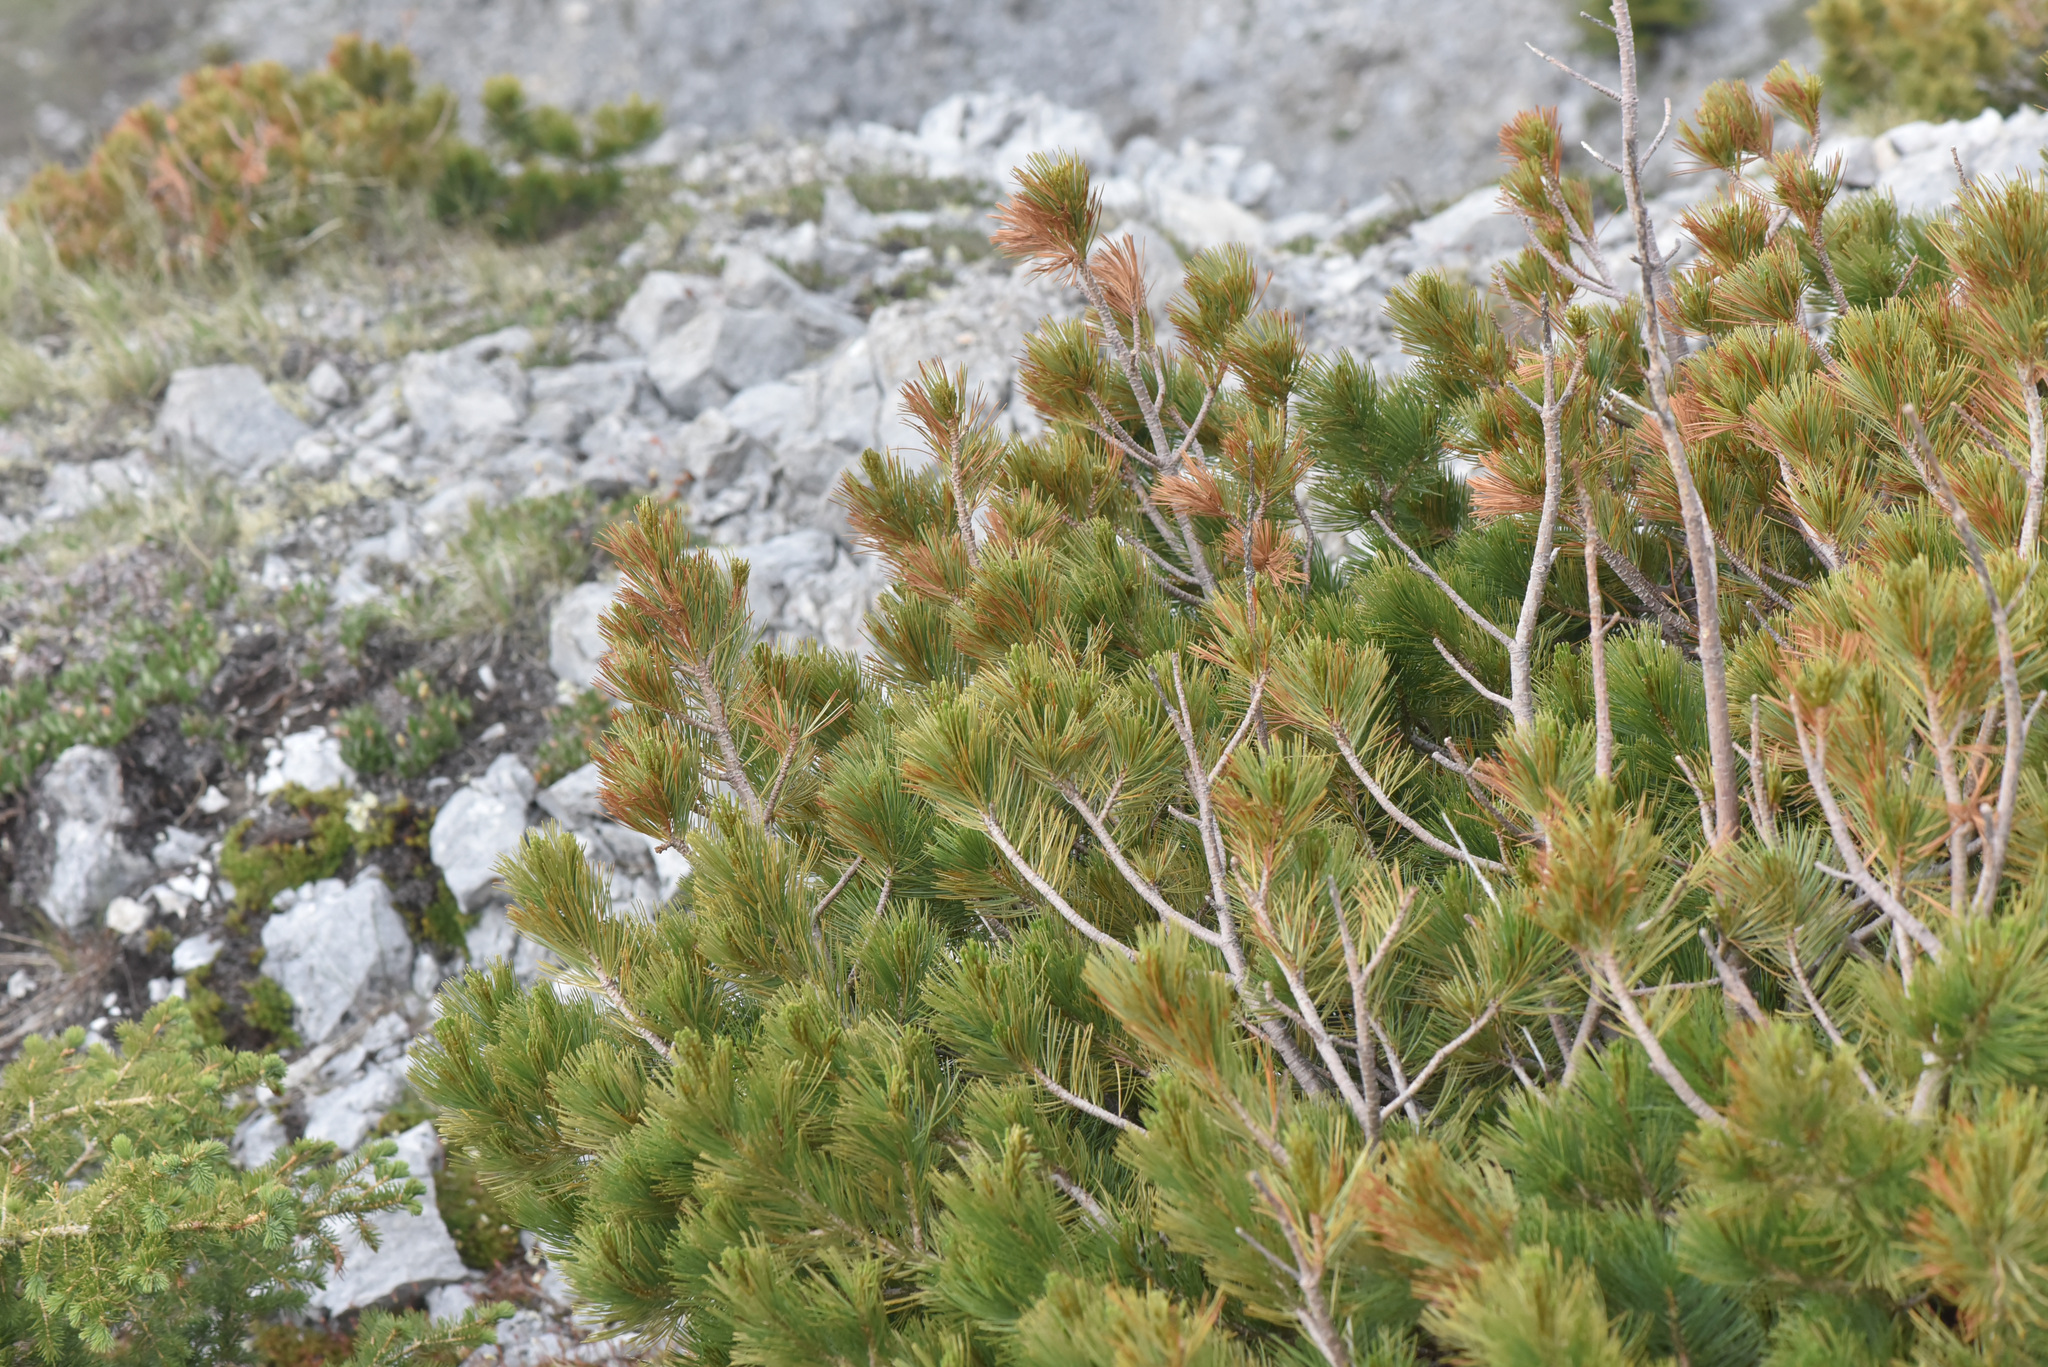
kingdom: Plantae
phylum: Tracheophyta
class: Pinopsida
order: Pinales
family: Pinaceae
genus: Pinus
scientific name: Pinus albicaulis
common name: Whitebark pine
